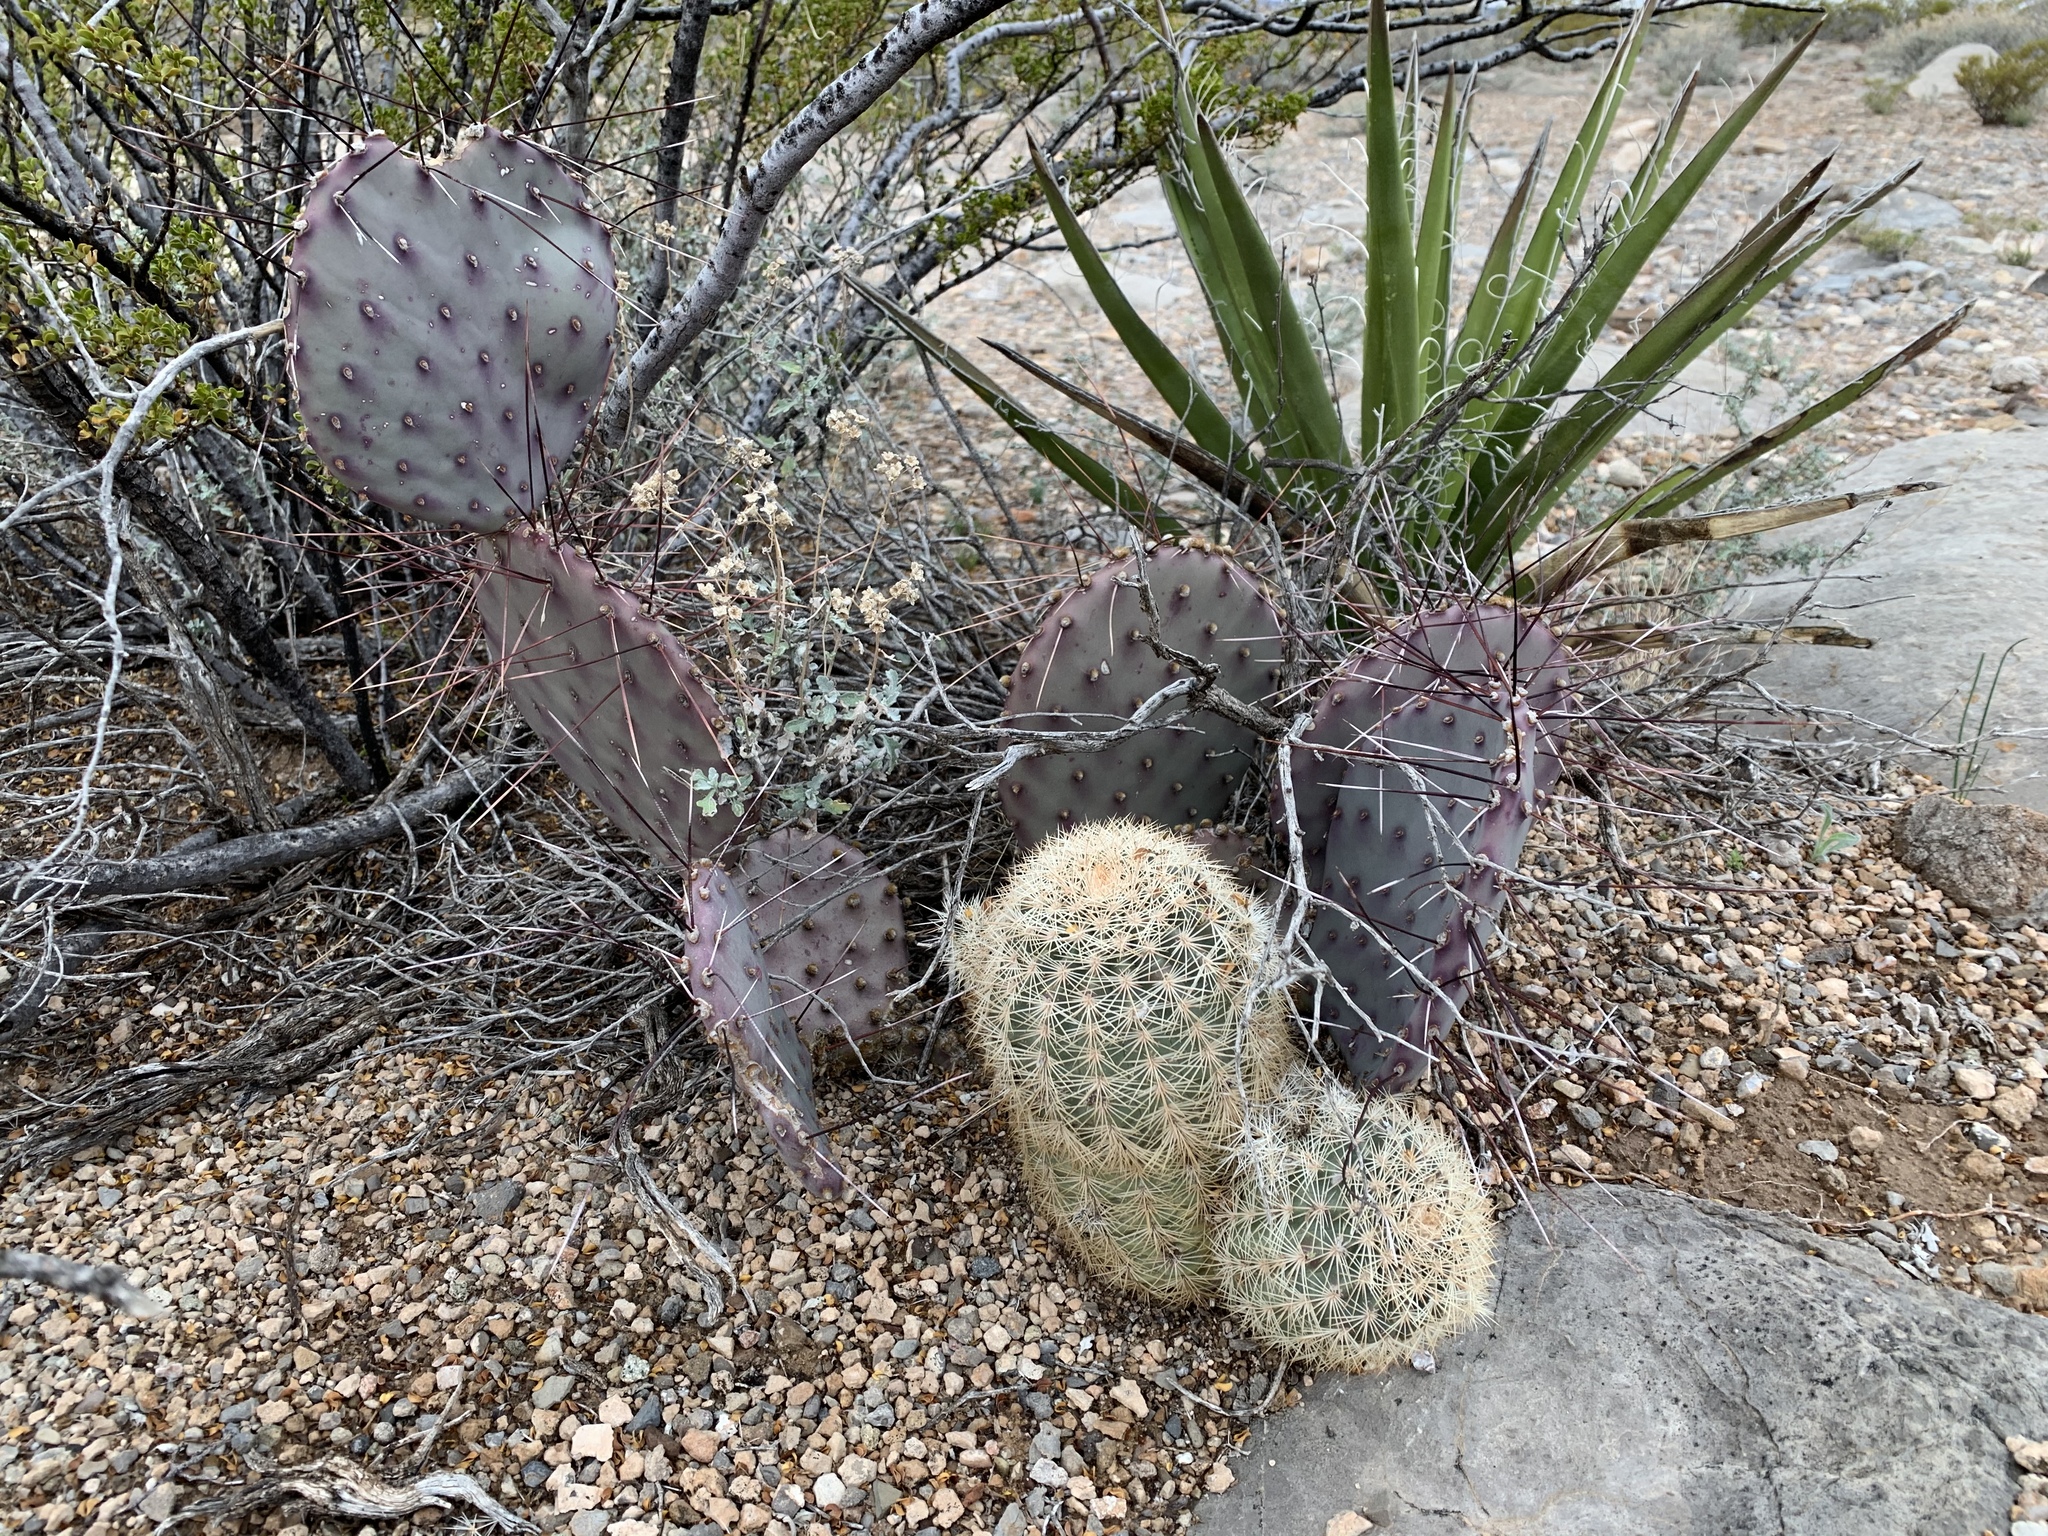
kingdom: Plantae
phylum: Tracheophyta
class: Magnoliopsida
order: Caryophyllales
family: Cactaceae
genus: Opuntia
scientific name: Opuntia macrocentra
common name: Purple prickly-pear
